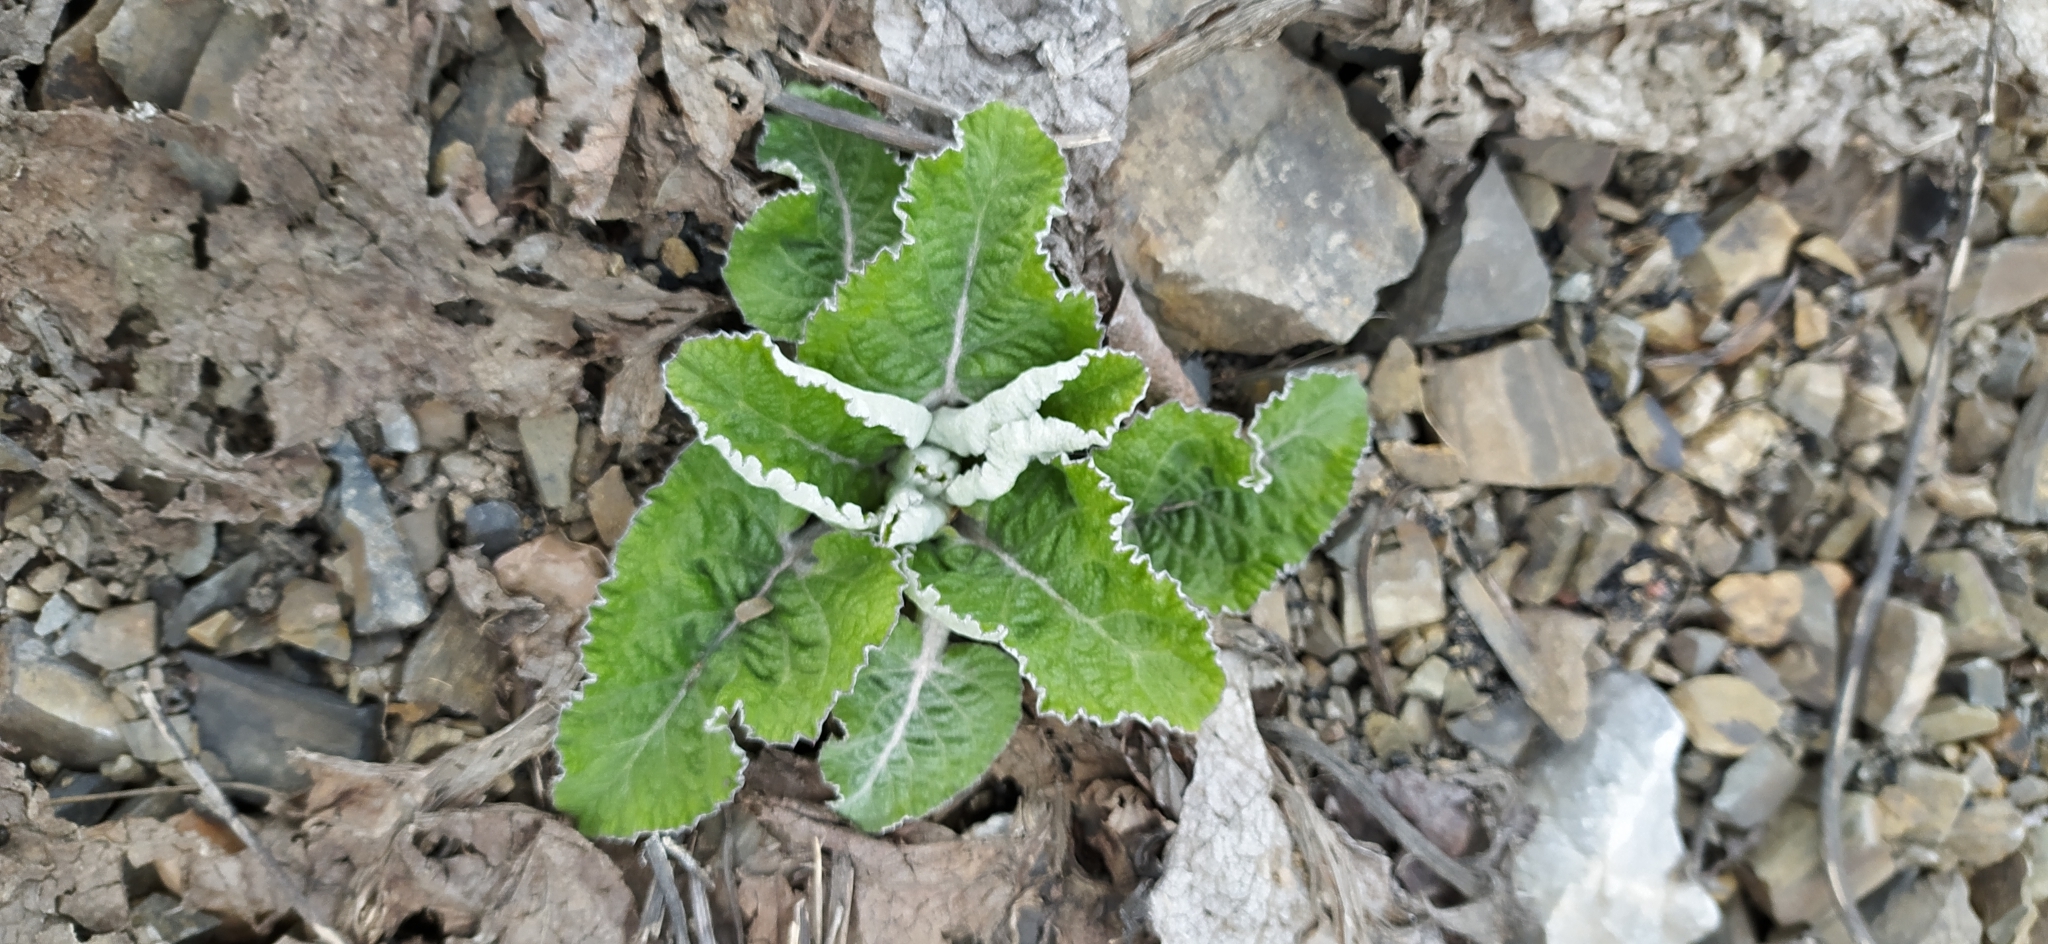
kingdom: Plantae
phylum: Tracheophyta
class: Magnoliopsida
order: Asterales
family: Asteraceae
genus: Arctium
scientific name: Arctium tomentosum
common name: Woolly burdock
